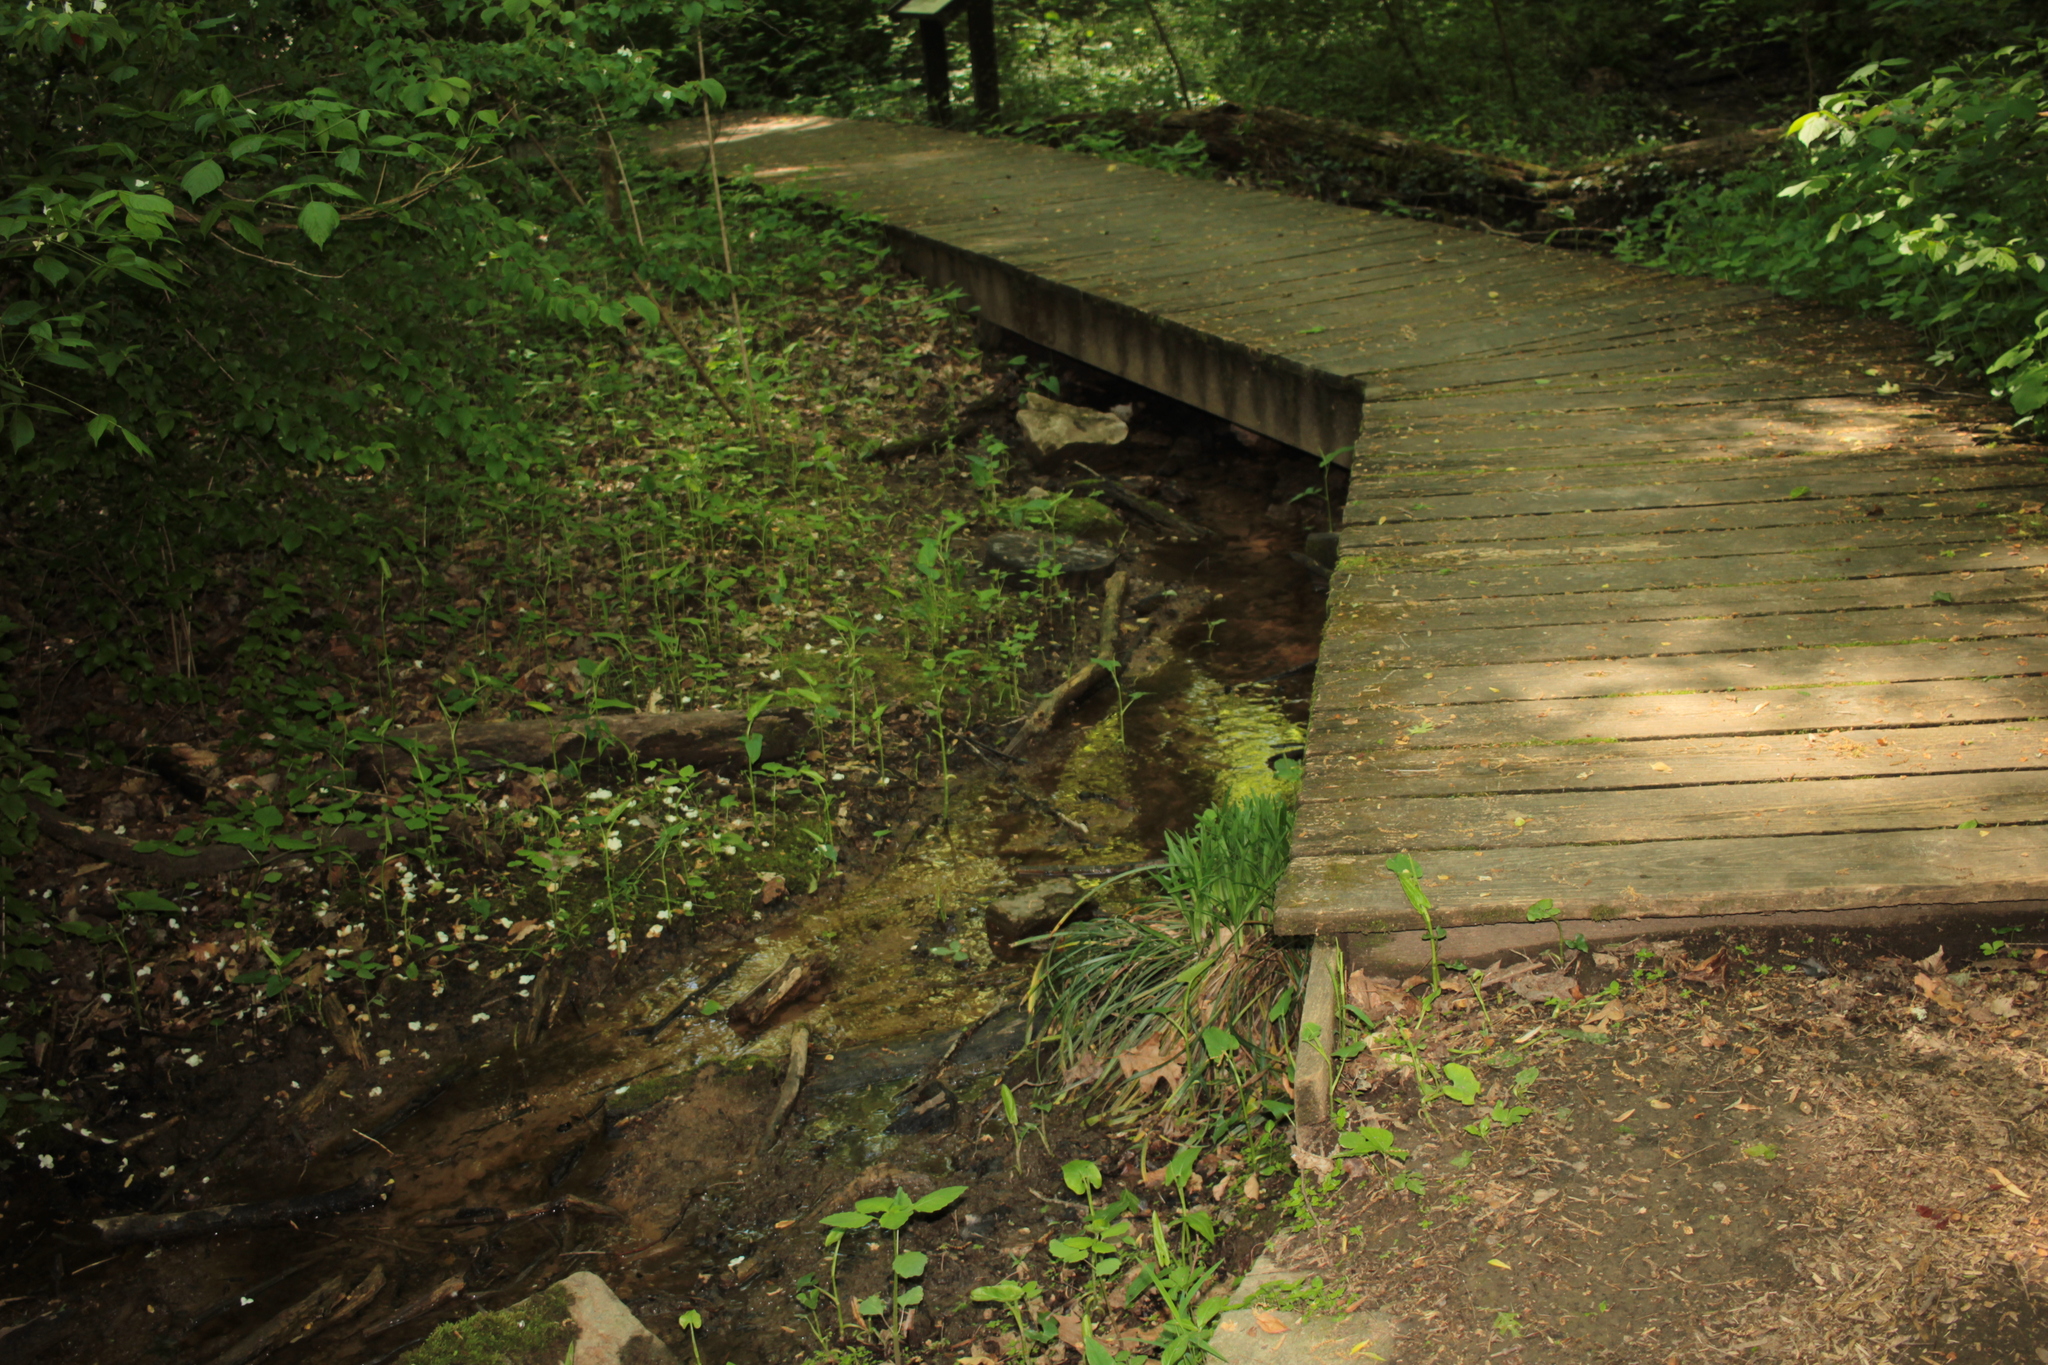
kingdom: Animalia
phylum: Chordata
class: Amphibia
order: Caudata
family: Plethodontidae
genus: Eurycea
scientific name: Eurycea aquatica
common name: Brown-backed salamander
